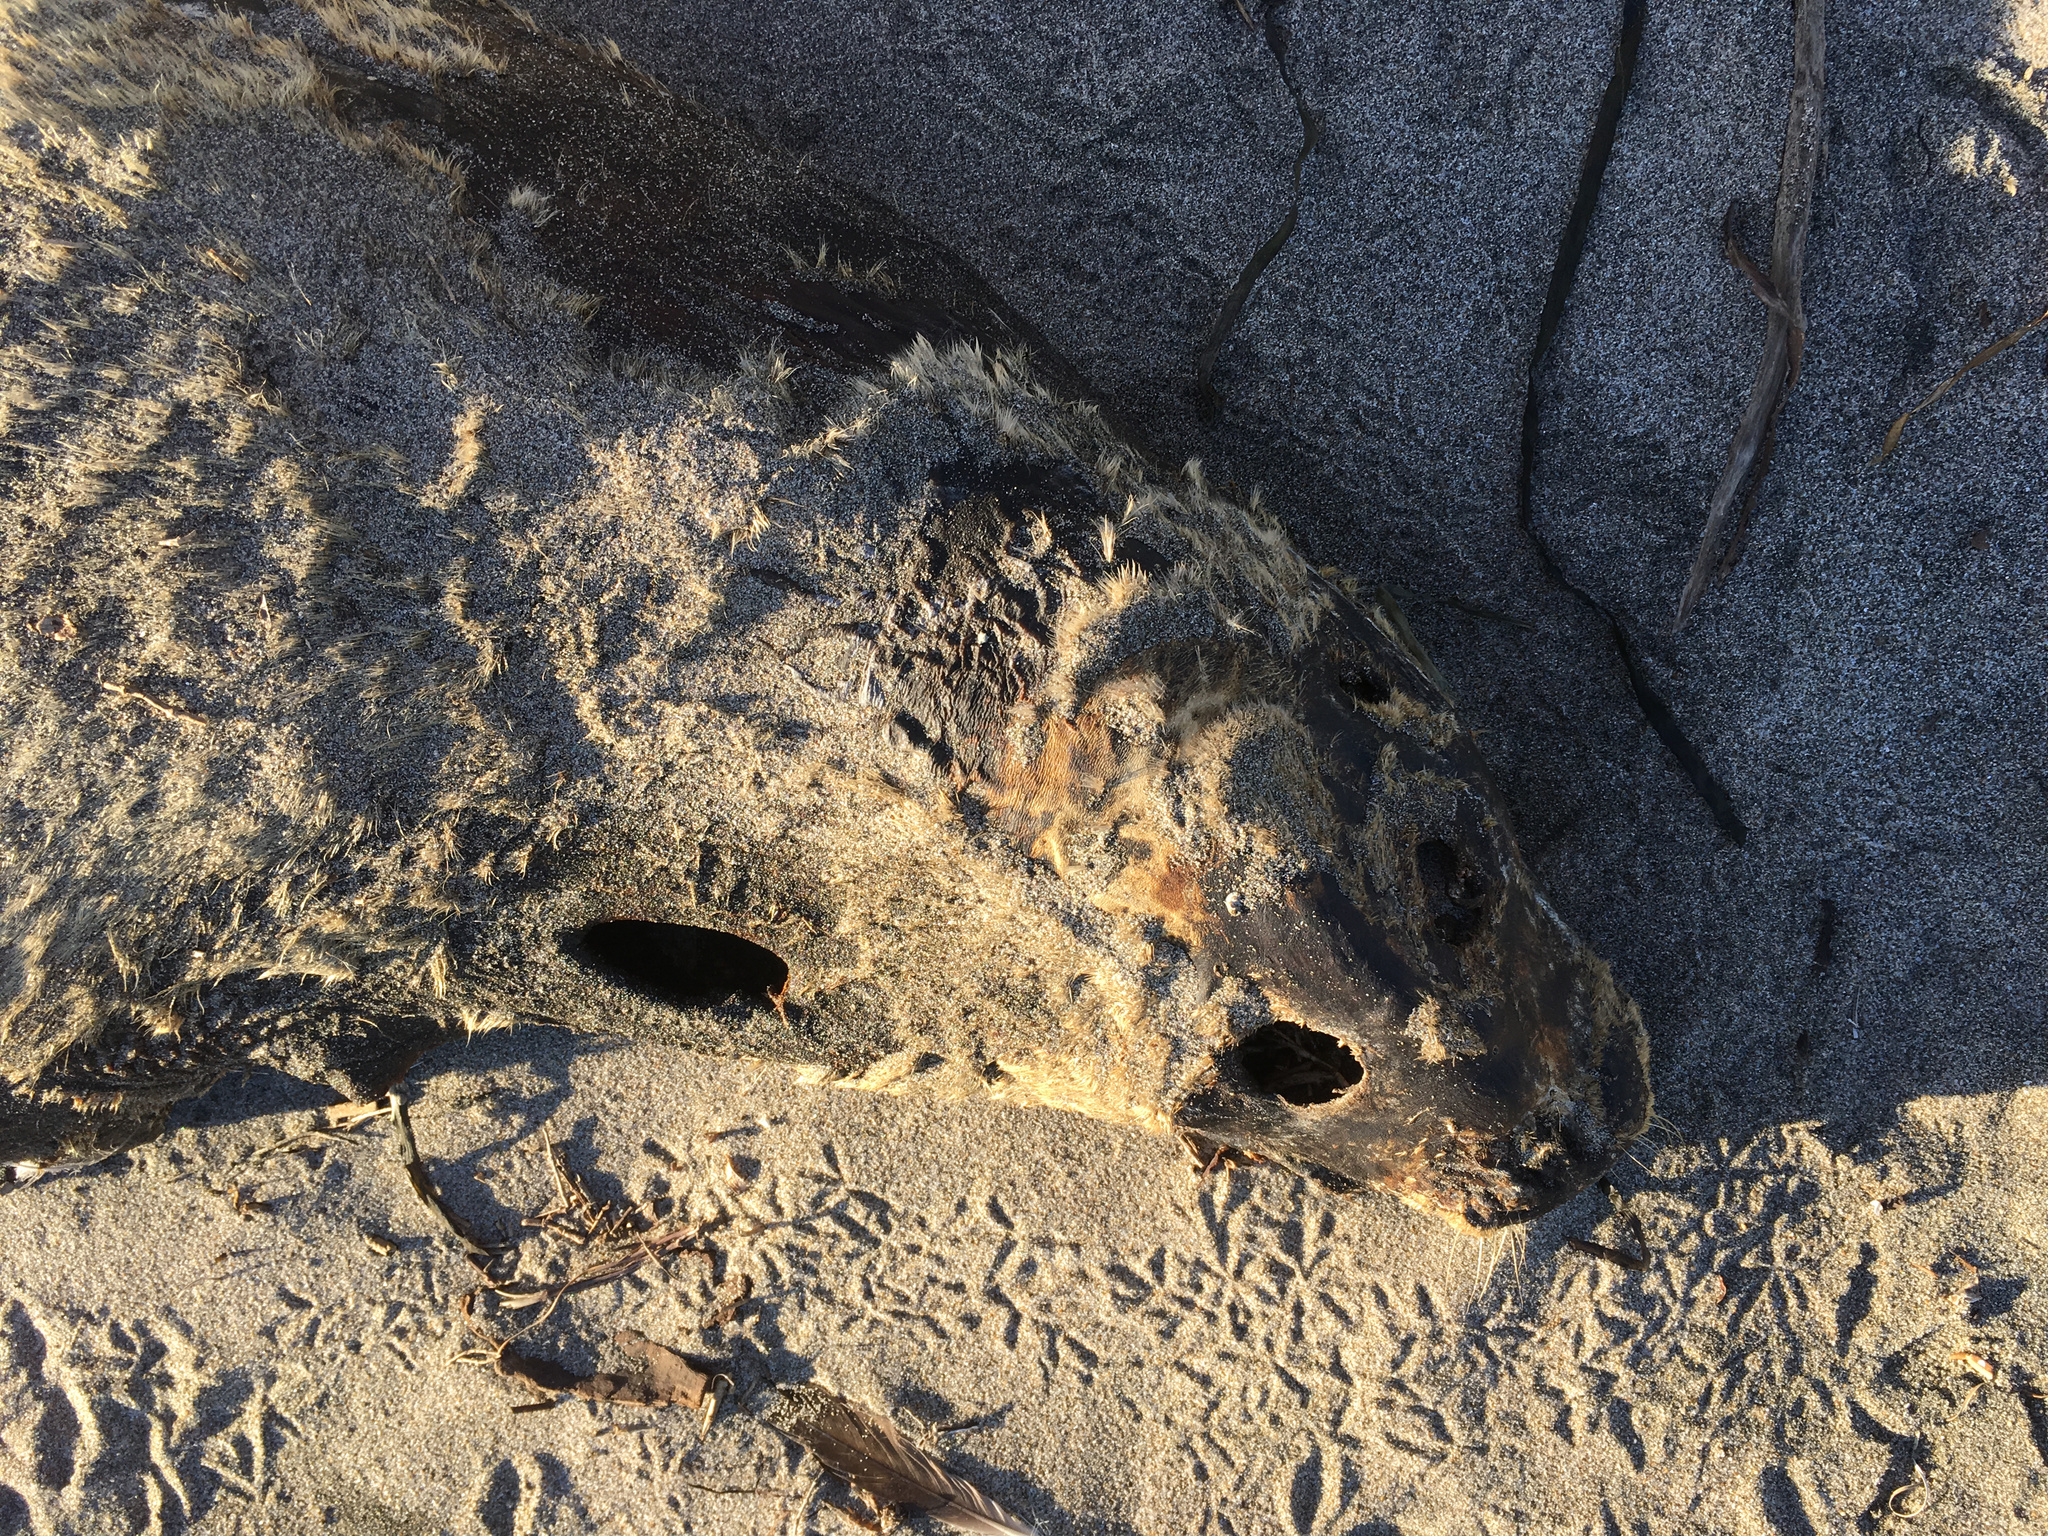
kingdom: Animalia
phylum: Chordata
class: Mammalia
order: Carnivora
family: Phocidae
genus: Phoca
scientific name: Phoca vitulina
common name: Harbor seal
